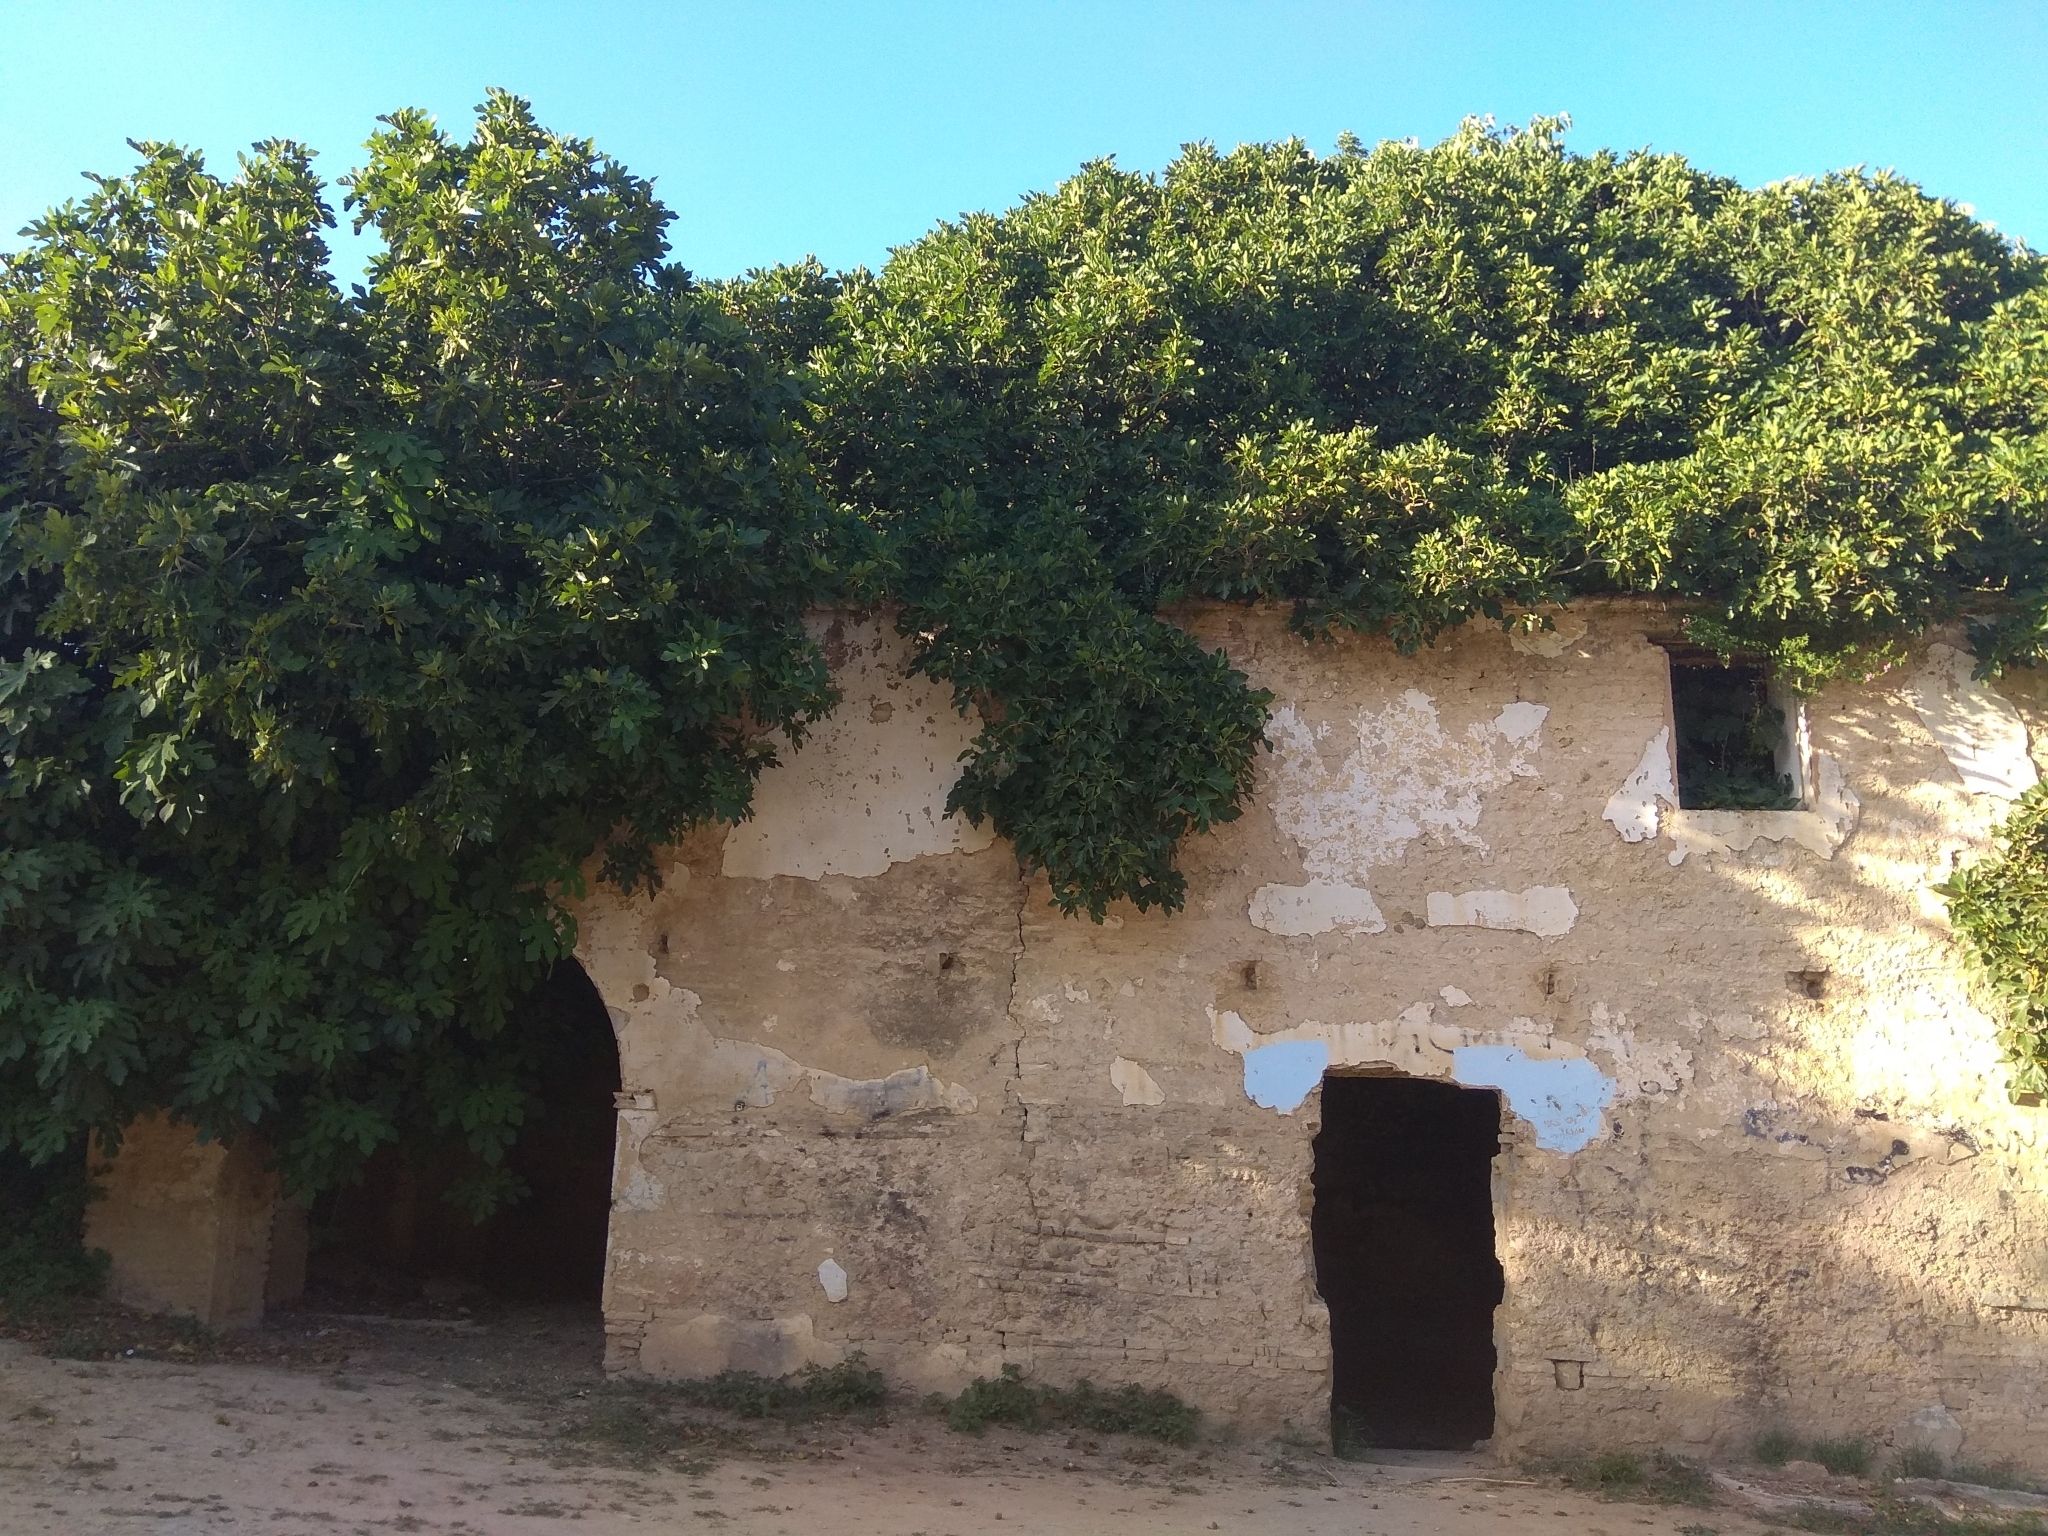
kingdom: Plantae
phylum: Tracheophyta
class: Magnoliopsida
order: Rosales
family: Moraceae
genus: Ficus
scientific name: Ficus carica
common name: Fig
